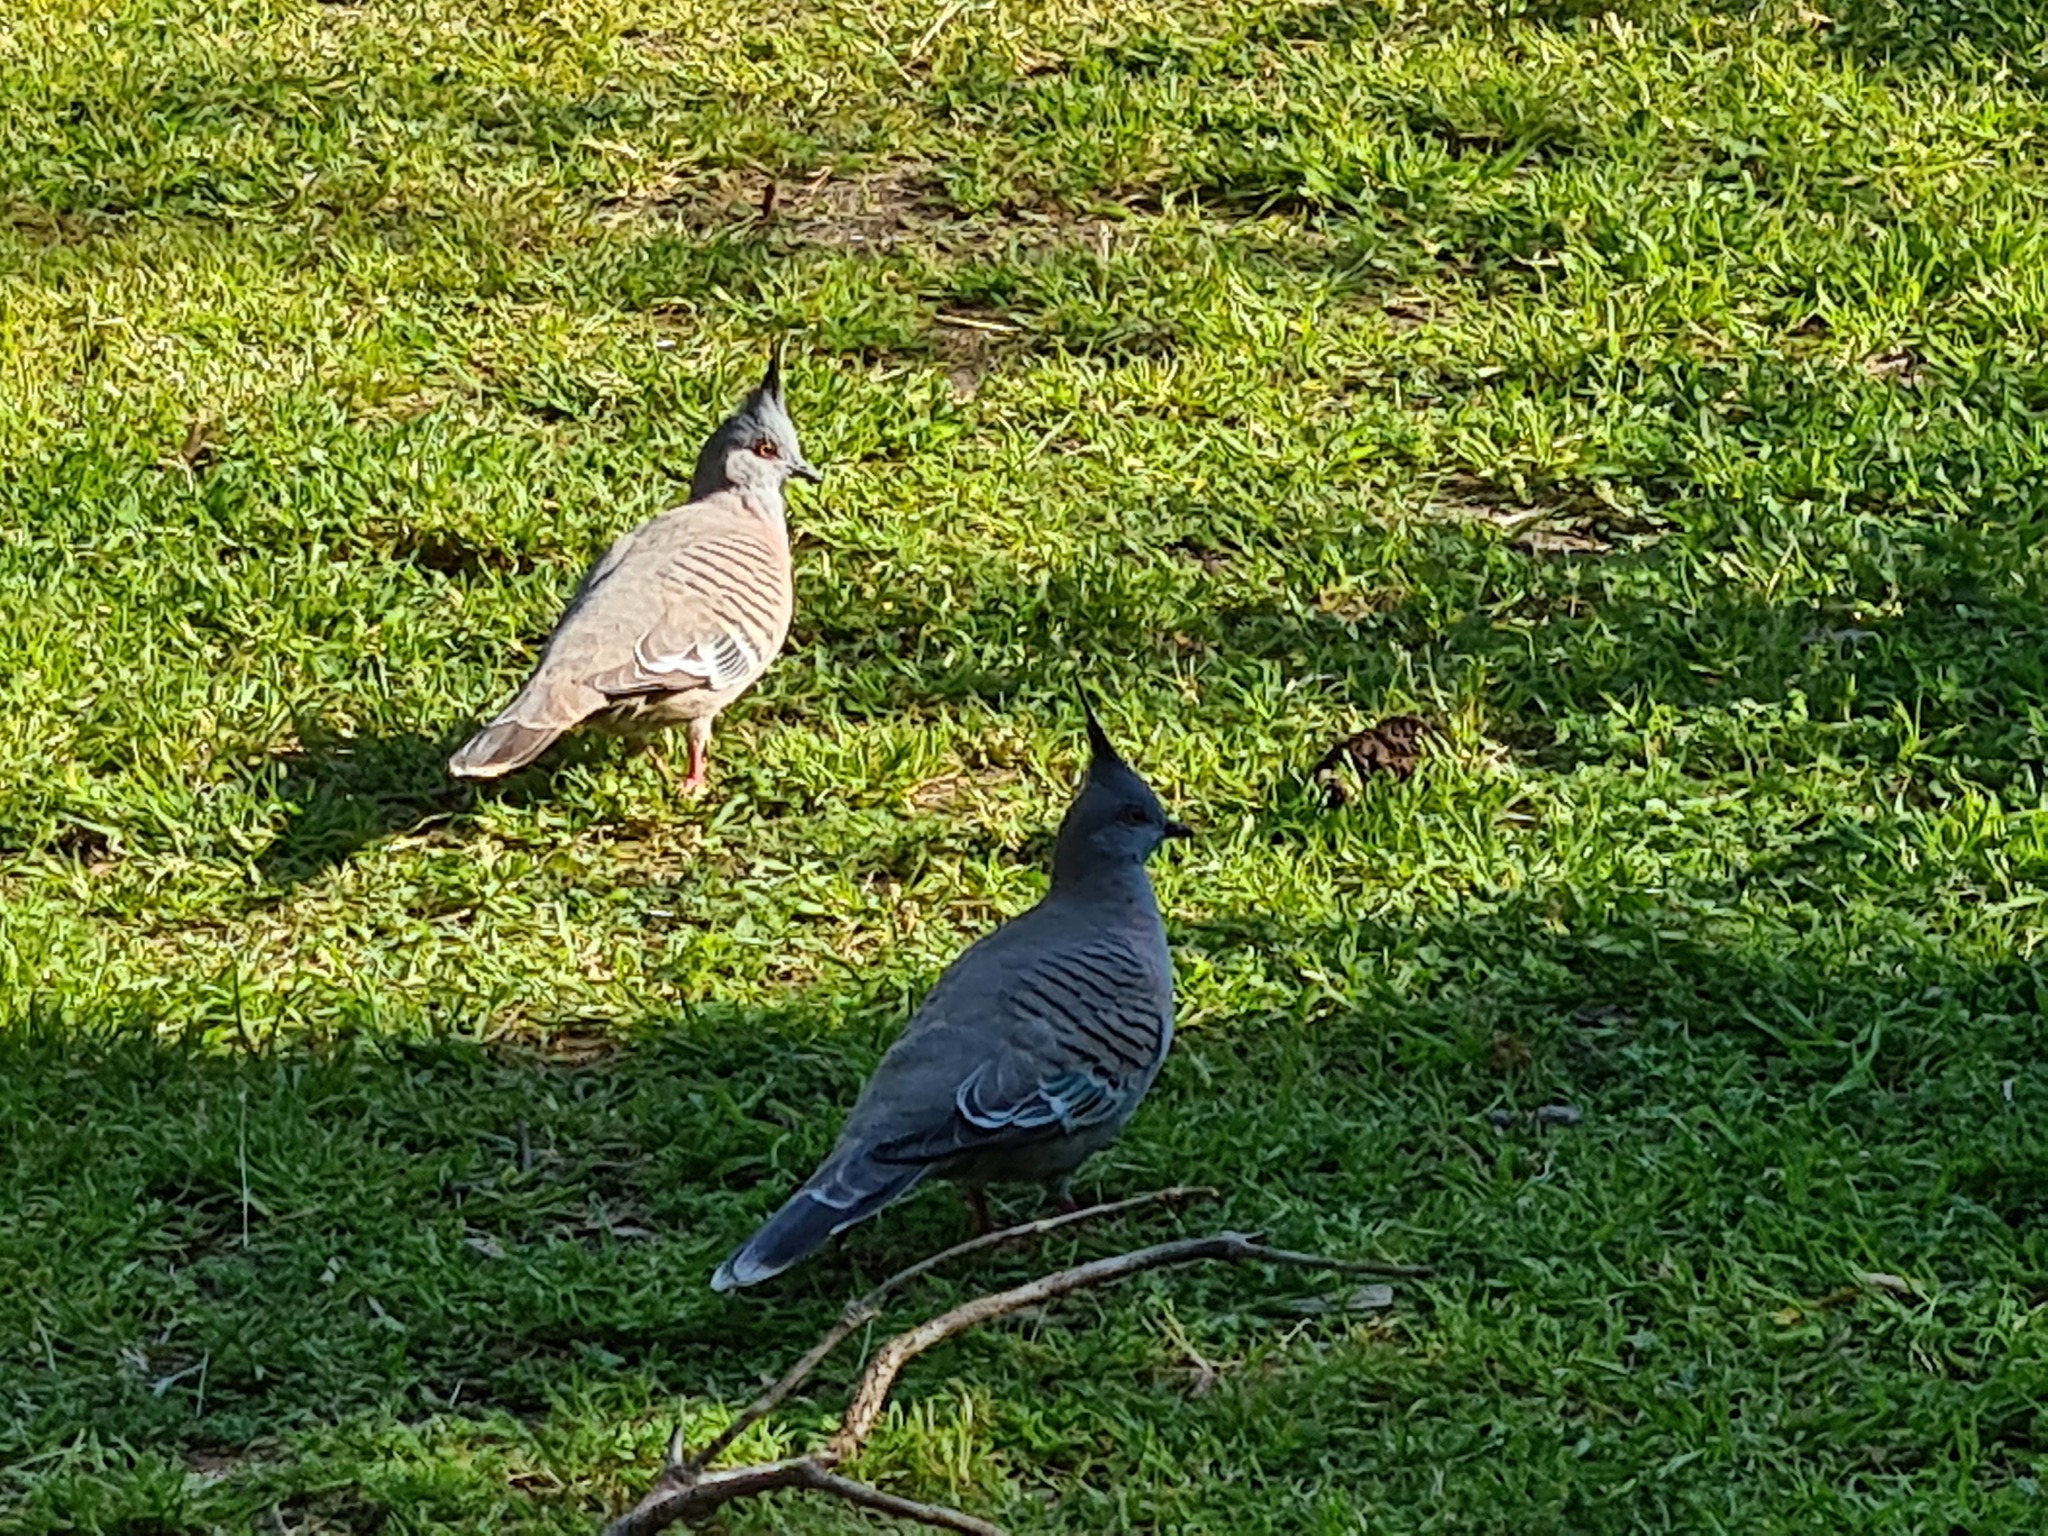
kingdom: Animalia
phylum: Chordata
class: Aves
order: Columbiformes
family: Columbidae
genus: Ocyphaps
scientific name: Ocyphaps lophotes
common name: Crested pigeon
